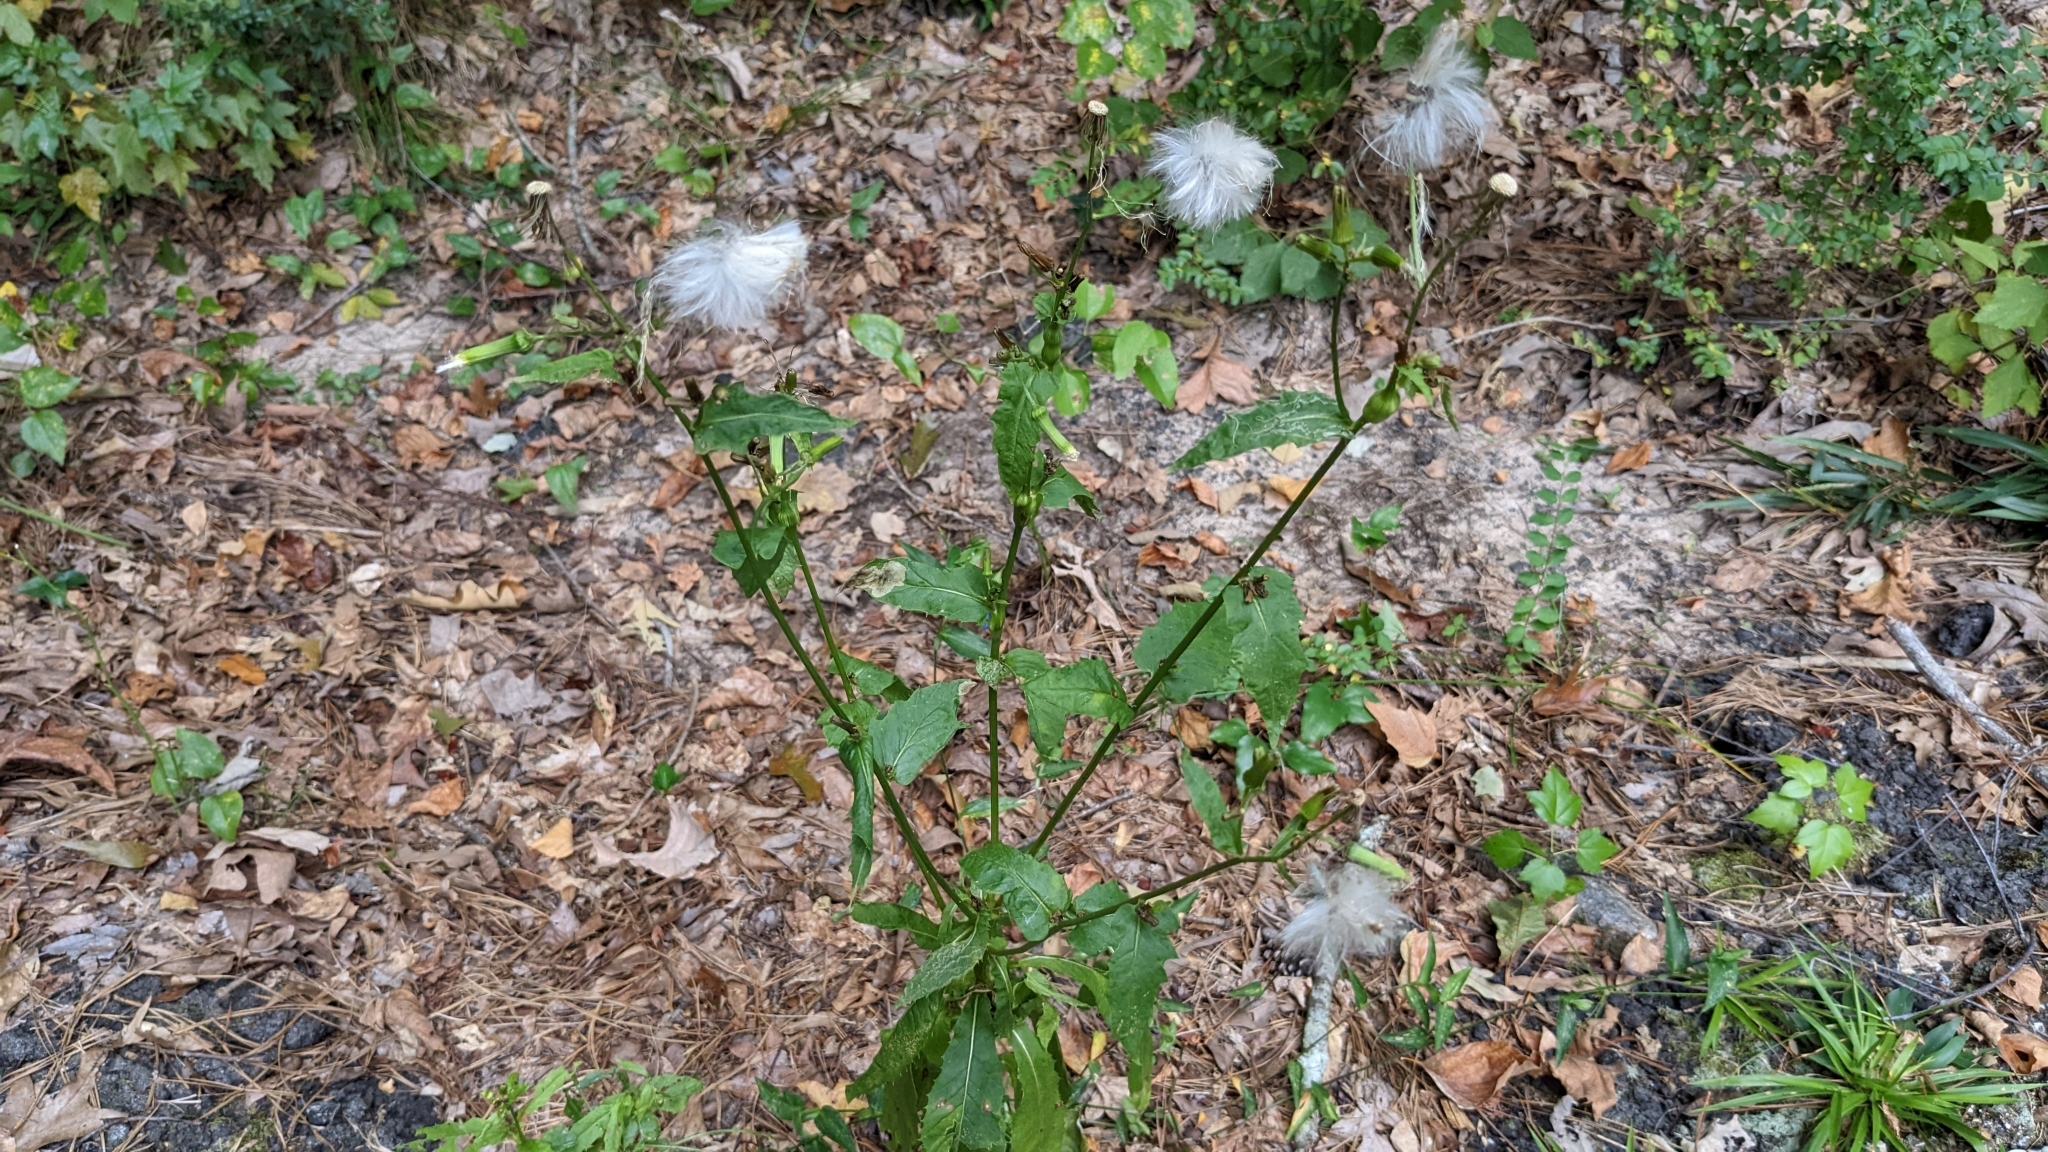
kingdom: Plantae
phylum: Tracheophyta
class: Magnoliopsida
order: Asterales
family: Asteraceae
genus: Erechtites
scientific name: Erechtites hieraciifolius
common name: American burnweed
